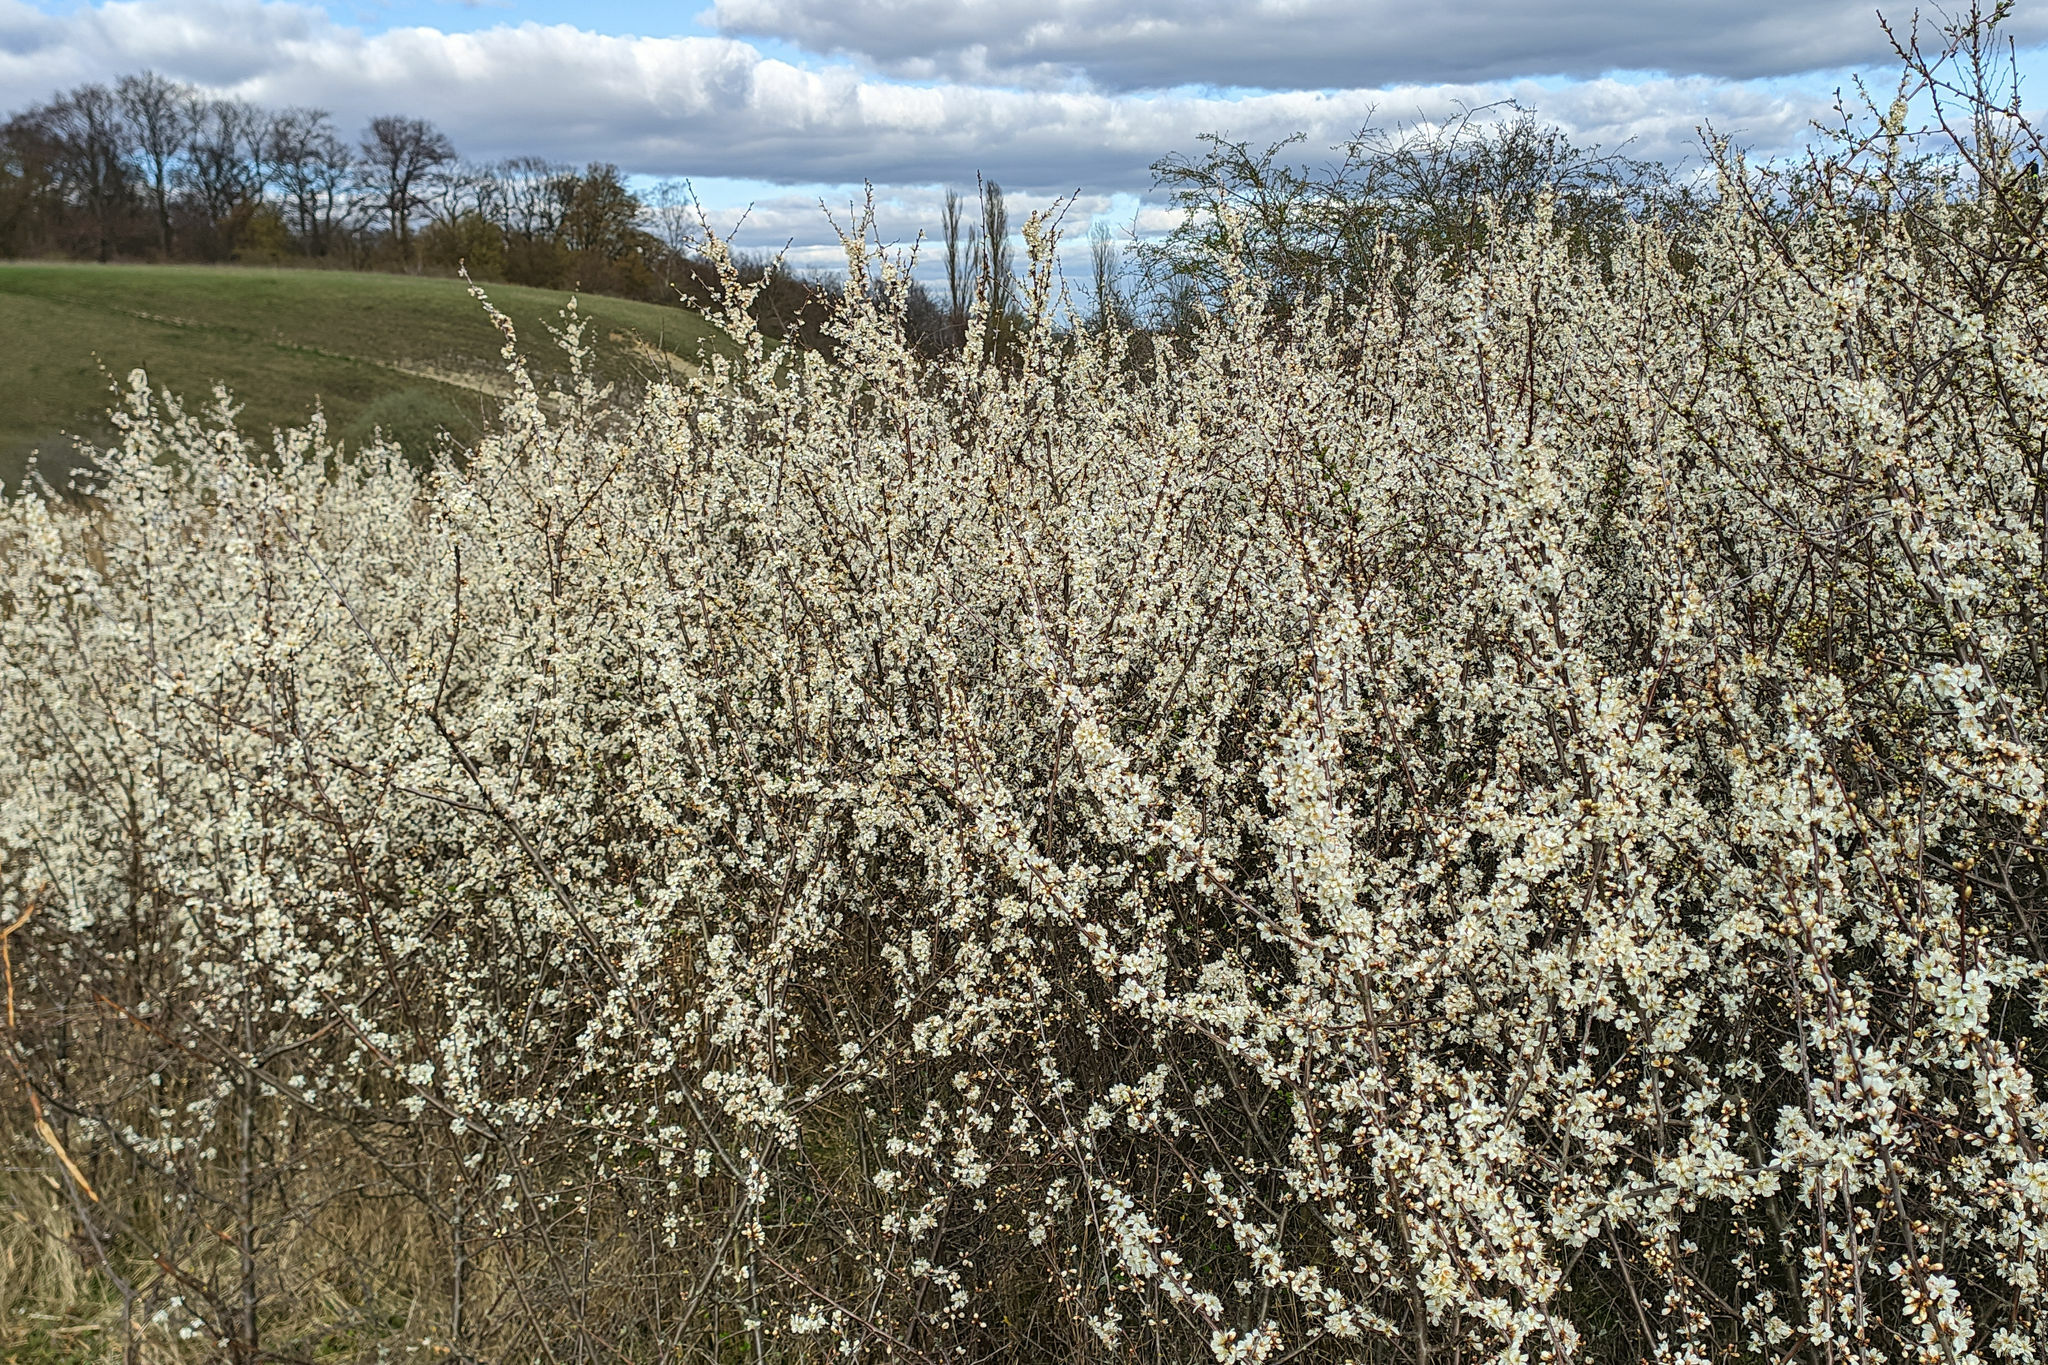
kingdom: Plantae
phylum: Tracheophyta
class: Magnoliopsida
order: Rosales
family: Rosaceae
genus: Prunus
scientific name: Prunus spinosa
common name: Blackthorn
